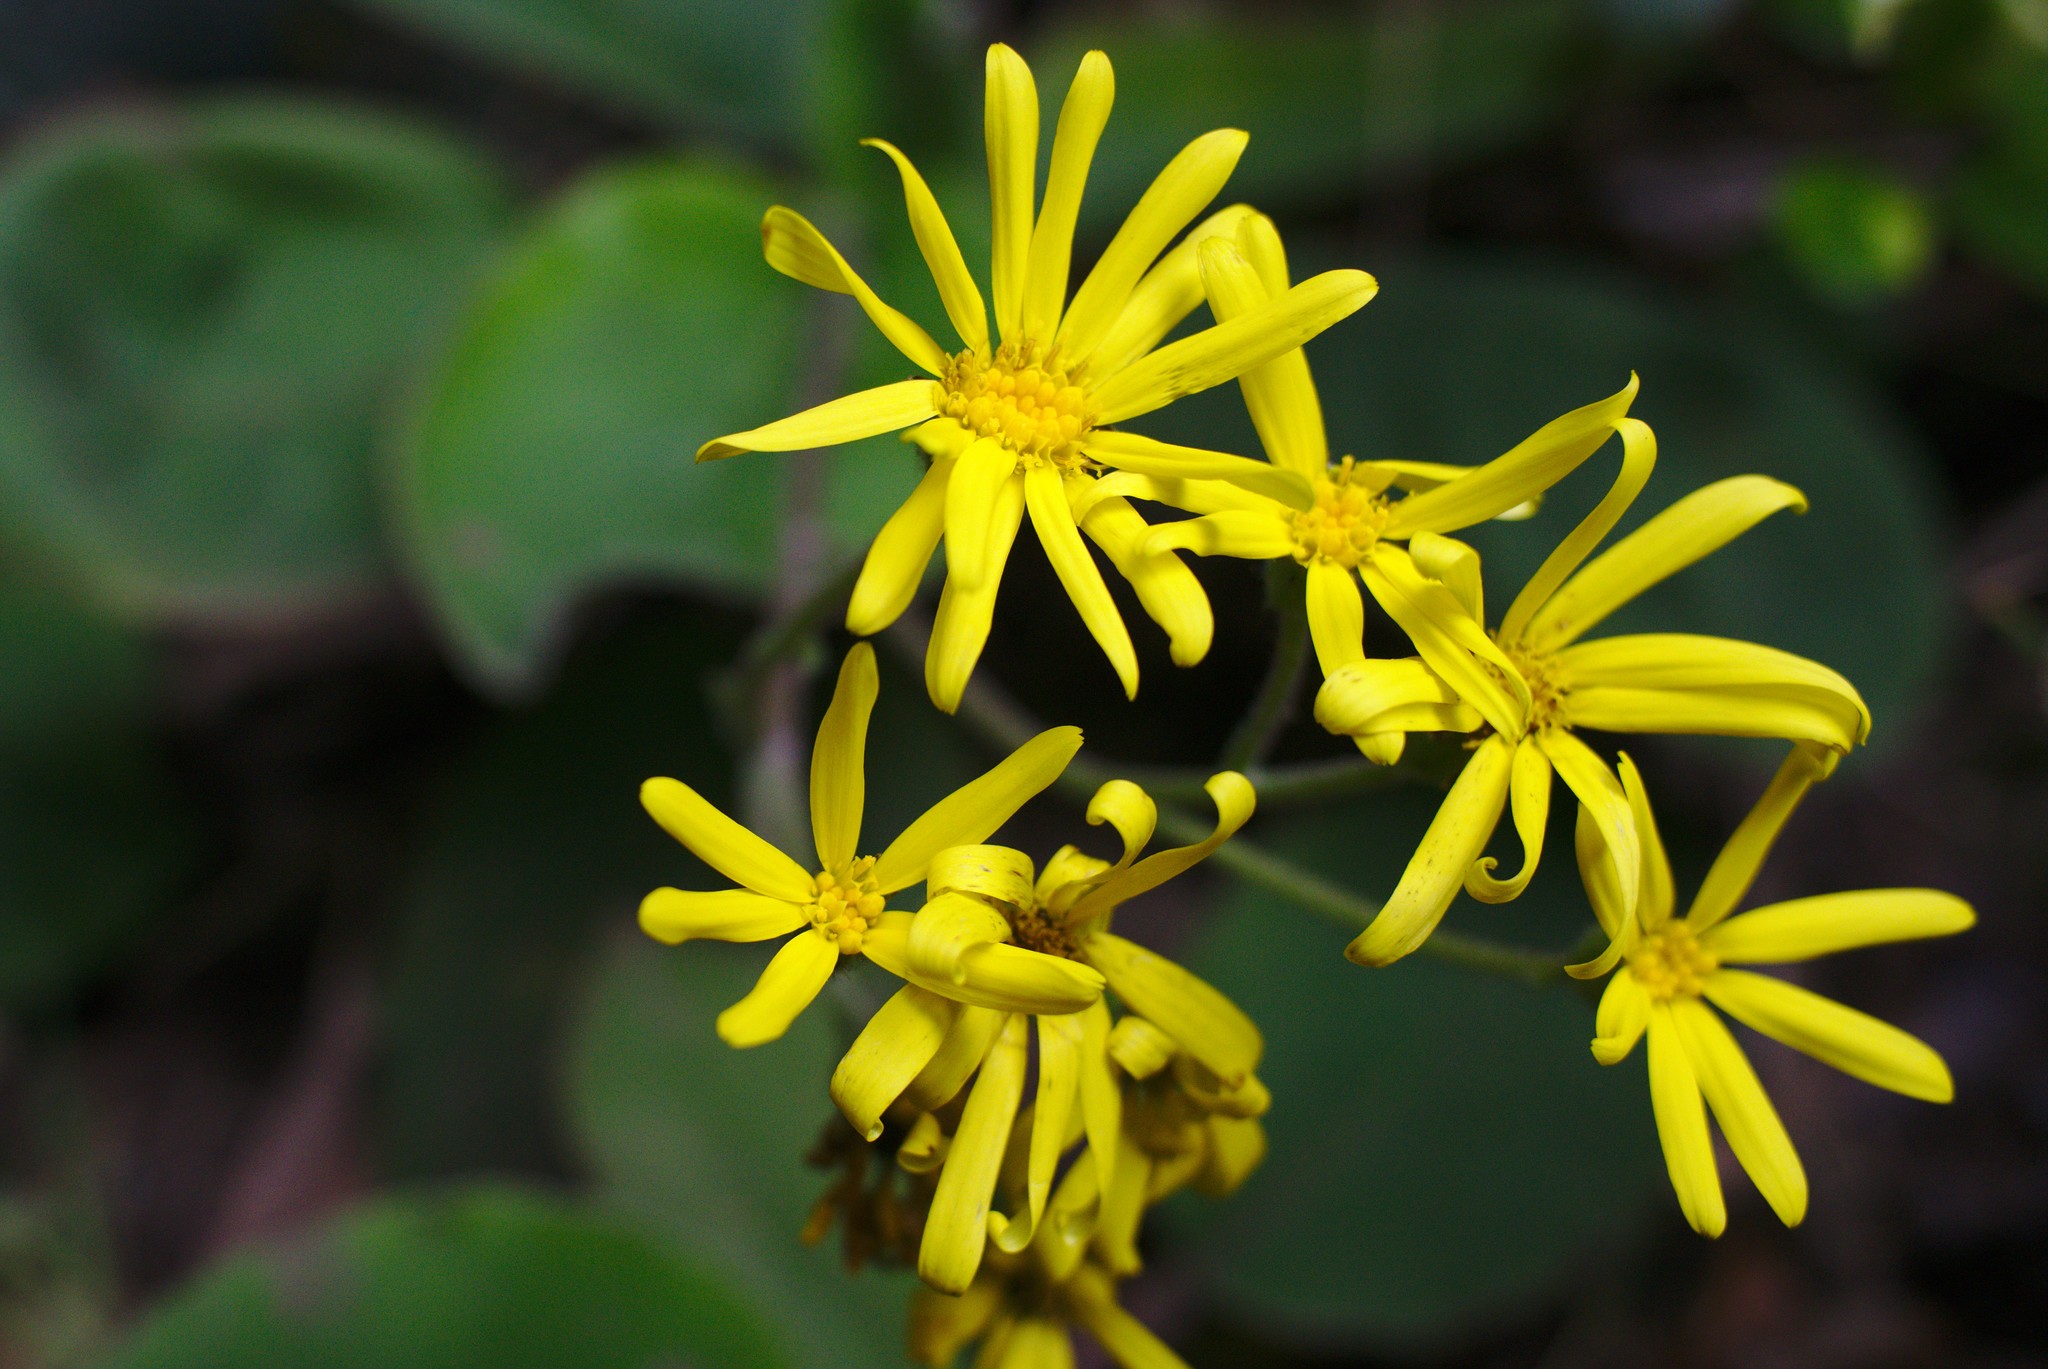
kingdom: Plantae
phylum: Tracheophyta
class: Magnoliopsida
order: Asterales
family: Asteraceae
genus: Brachyglottis
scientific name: Brachyglottis lagopus
